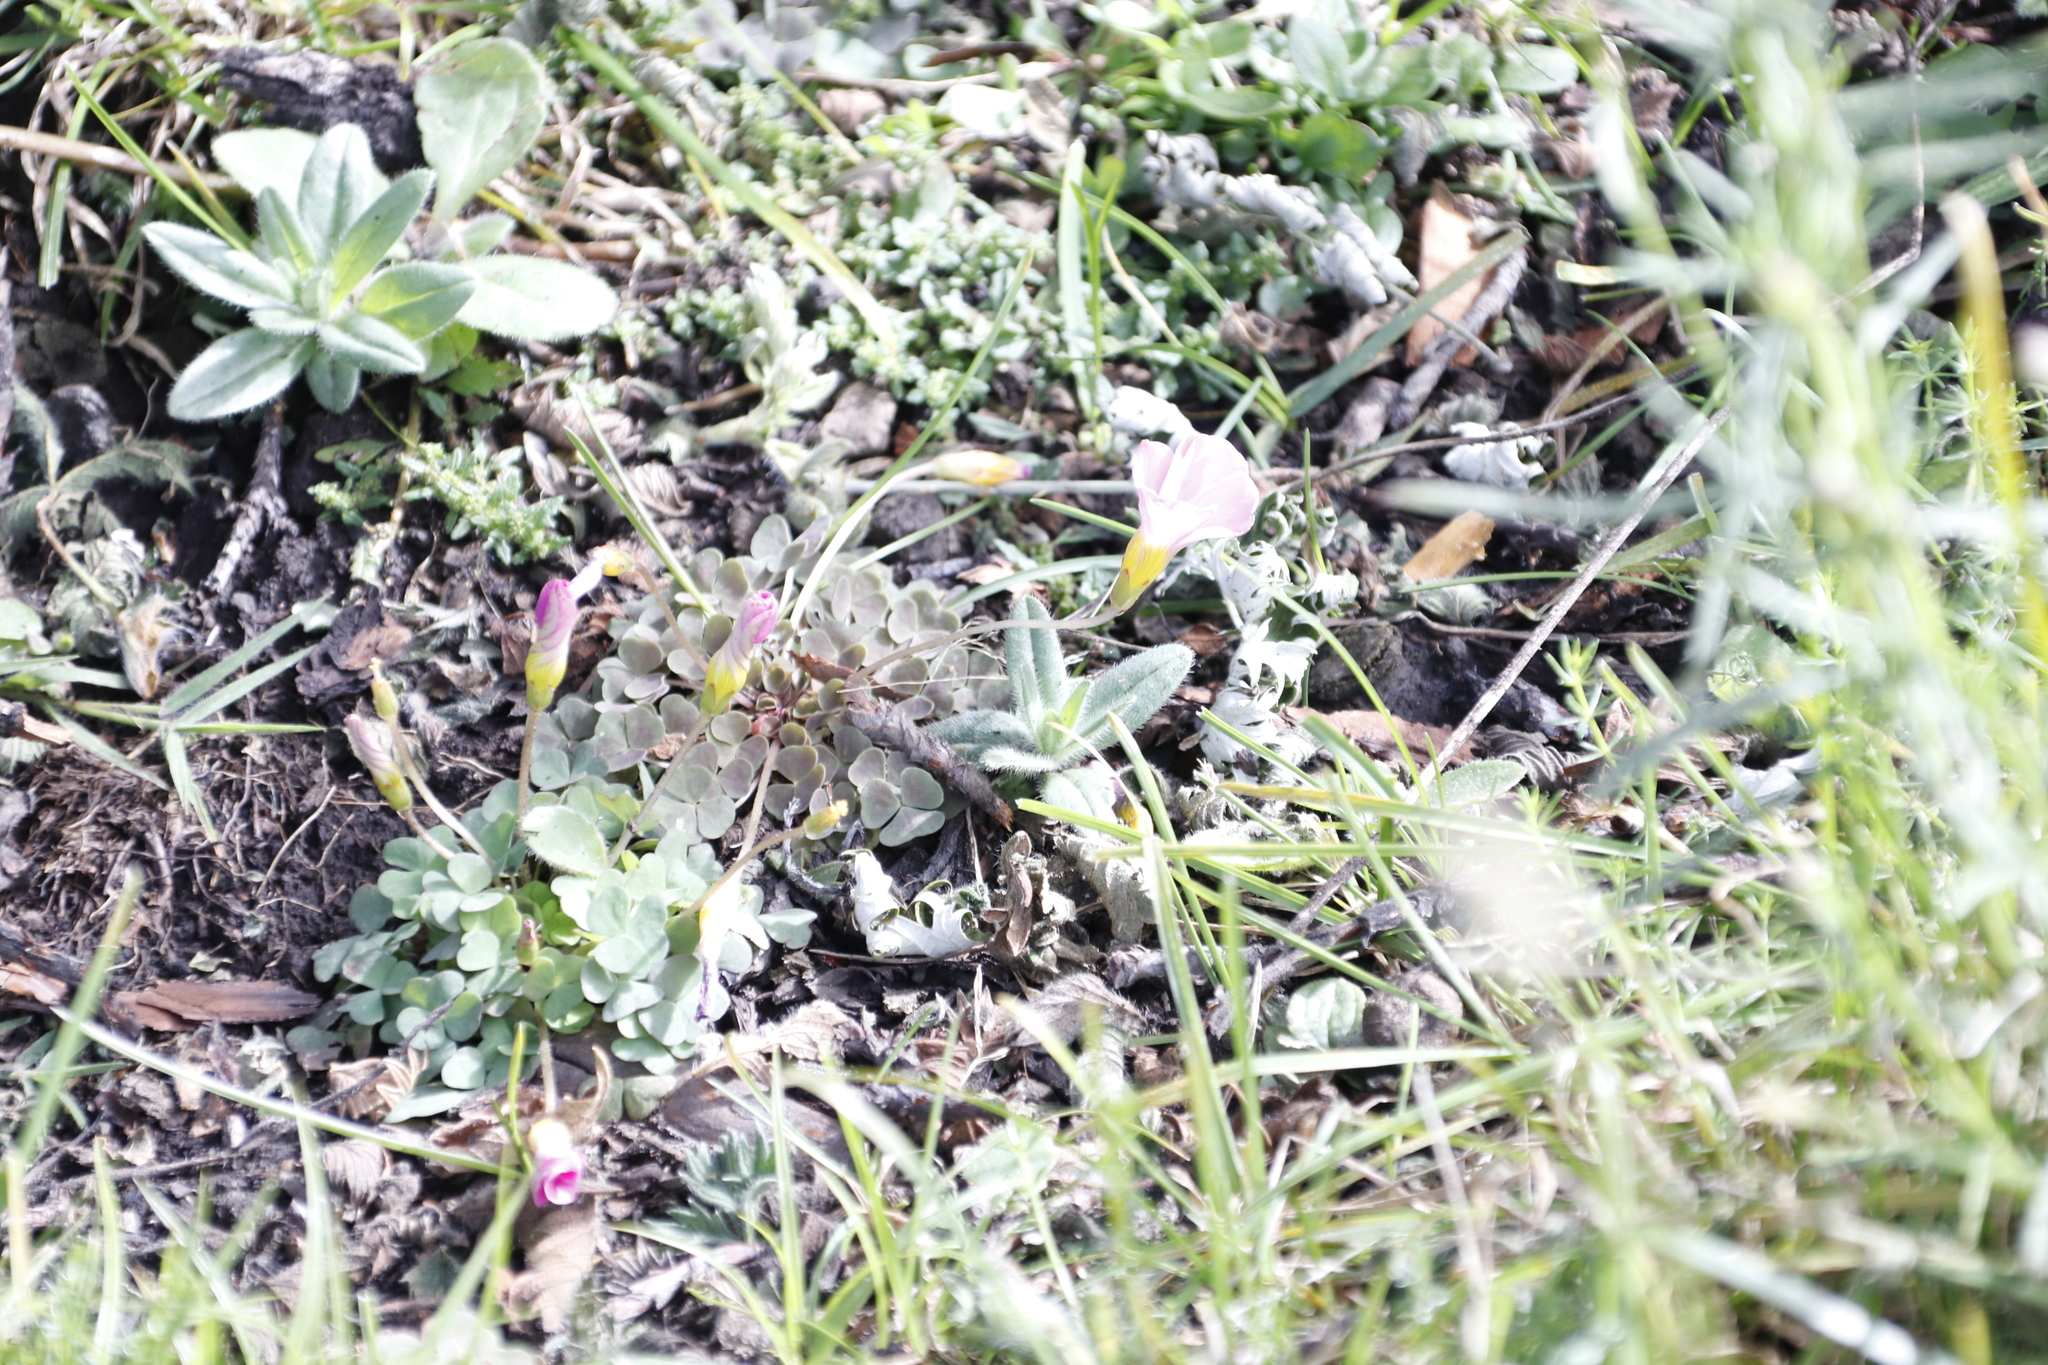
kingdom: Plantae
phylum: Tracheophyta
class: Magnoliopsida
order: Oxalidales
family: Oxalidaceae
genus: Oxalis
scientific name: Oxalis obliquifolia
